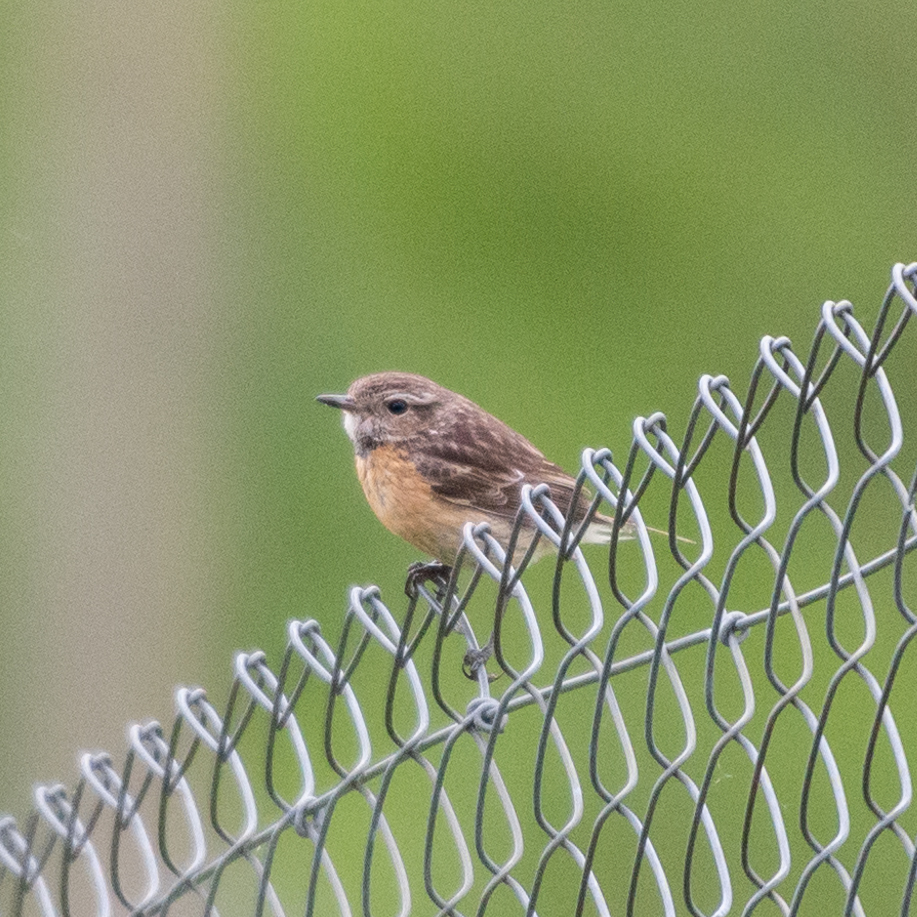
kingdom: Animalia
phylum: Chordata
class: Aves
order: Passeriformes
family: Muscicapidae
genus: Saxicola
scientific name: Saxicola rubicola
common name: European stonechat
